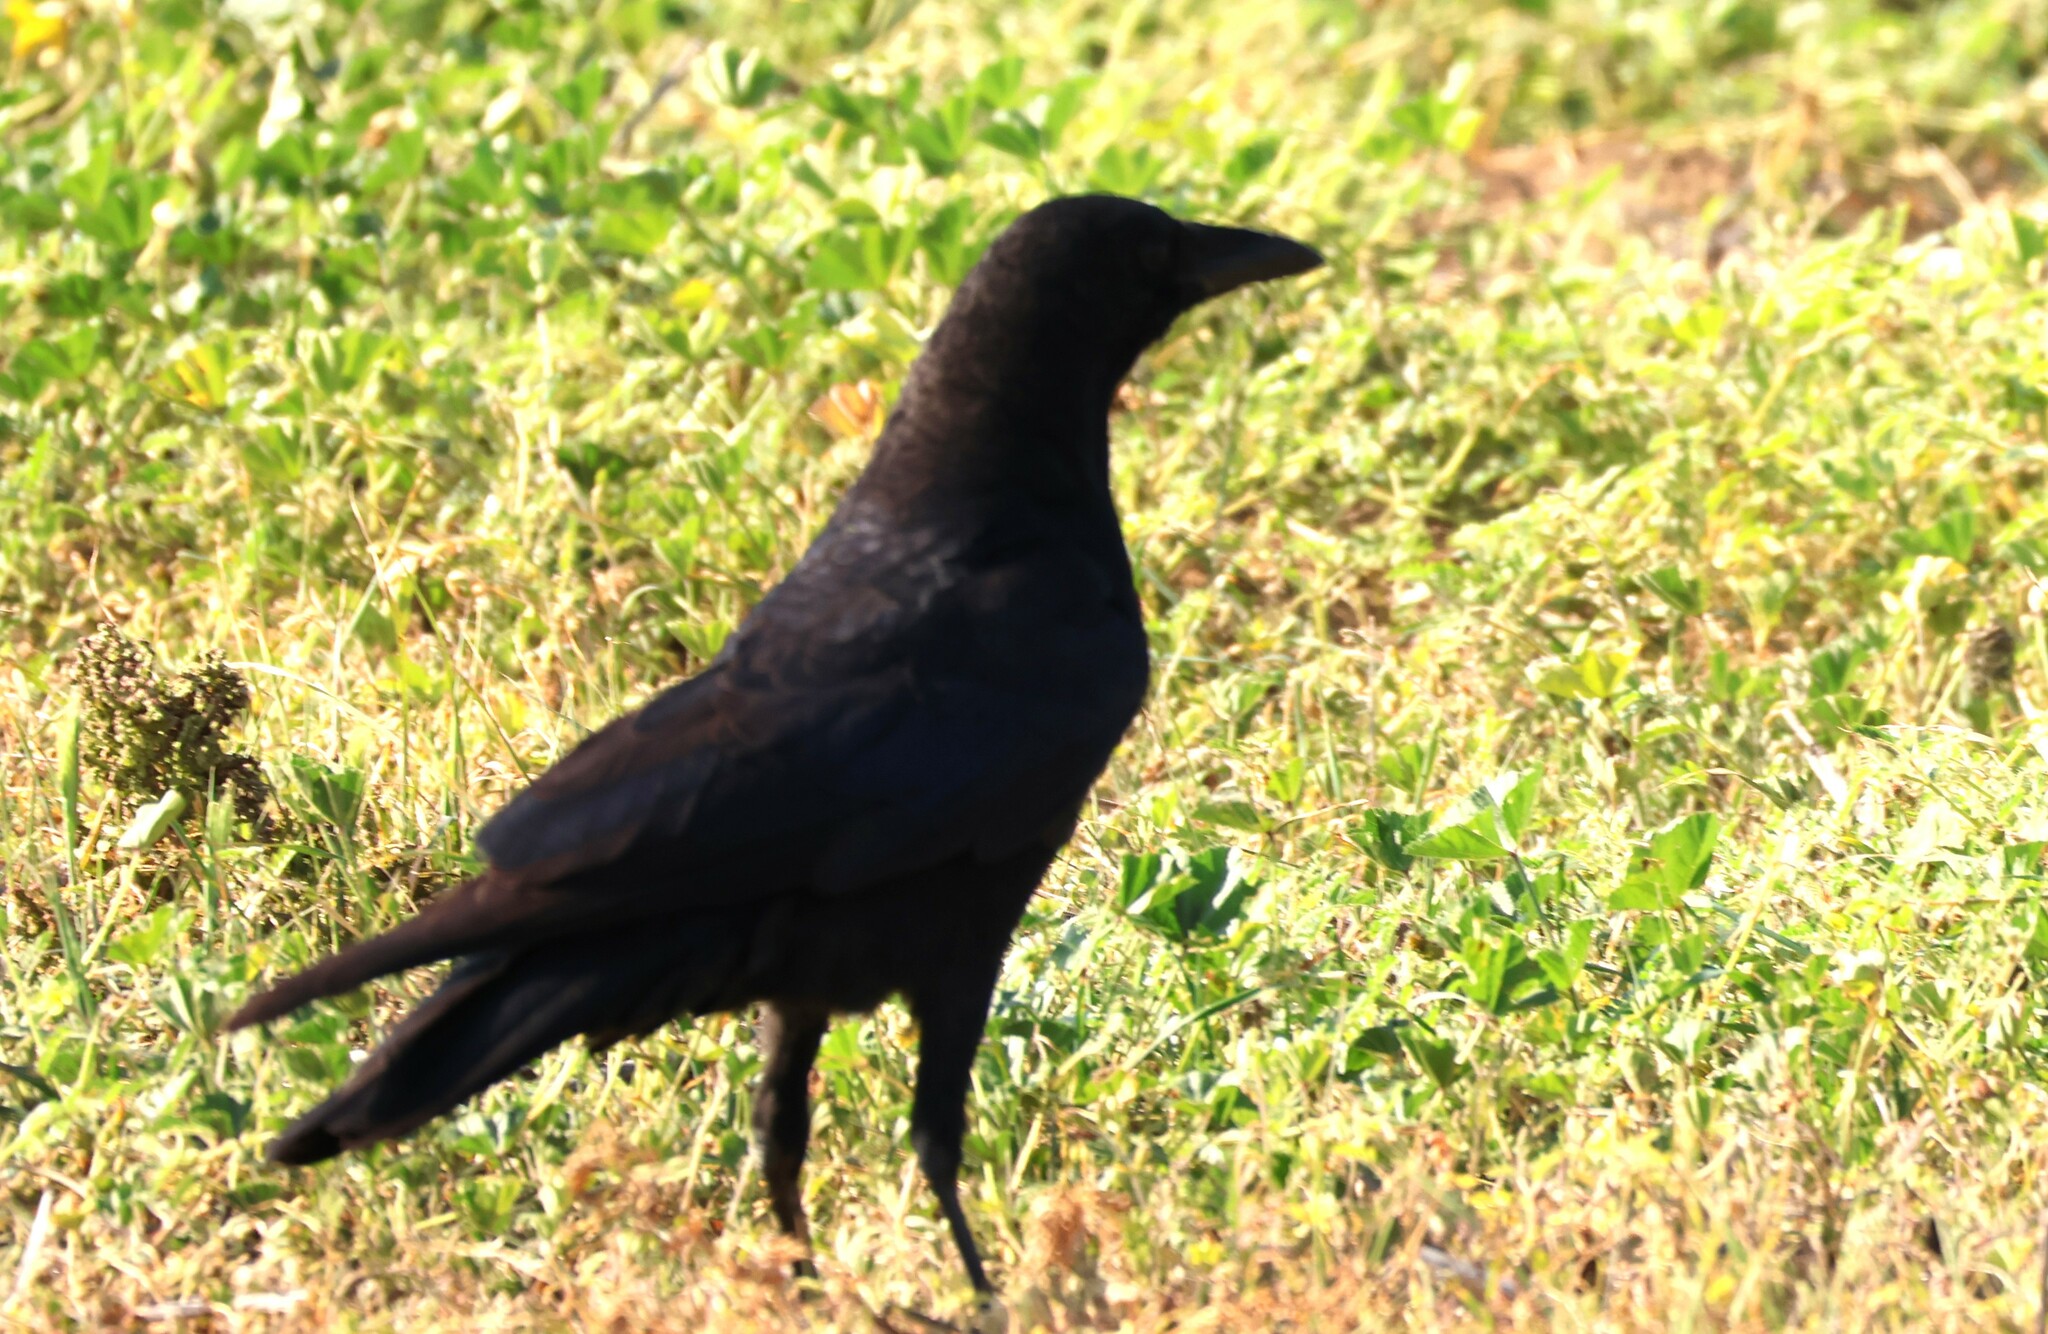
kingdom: Animalia
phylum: Chordata
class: Aves
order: Passeriformes
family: Corvidae
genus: Corvus
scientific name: Corvus brachyrhynchos
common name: American crow
